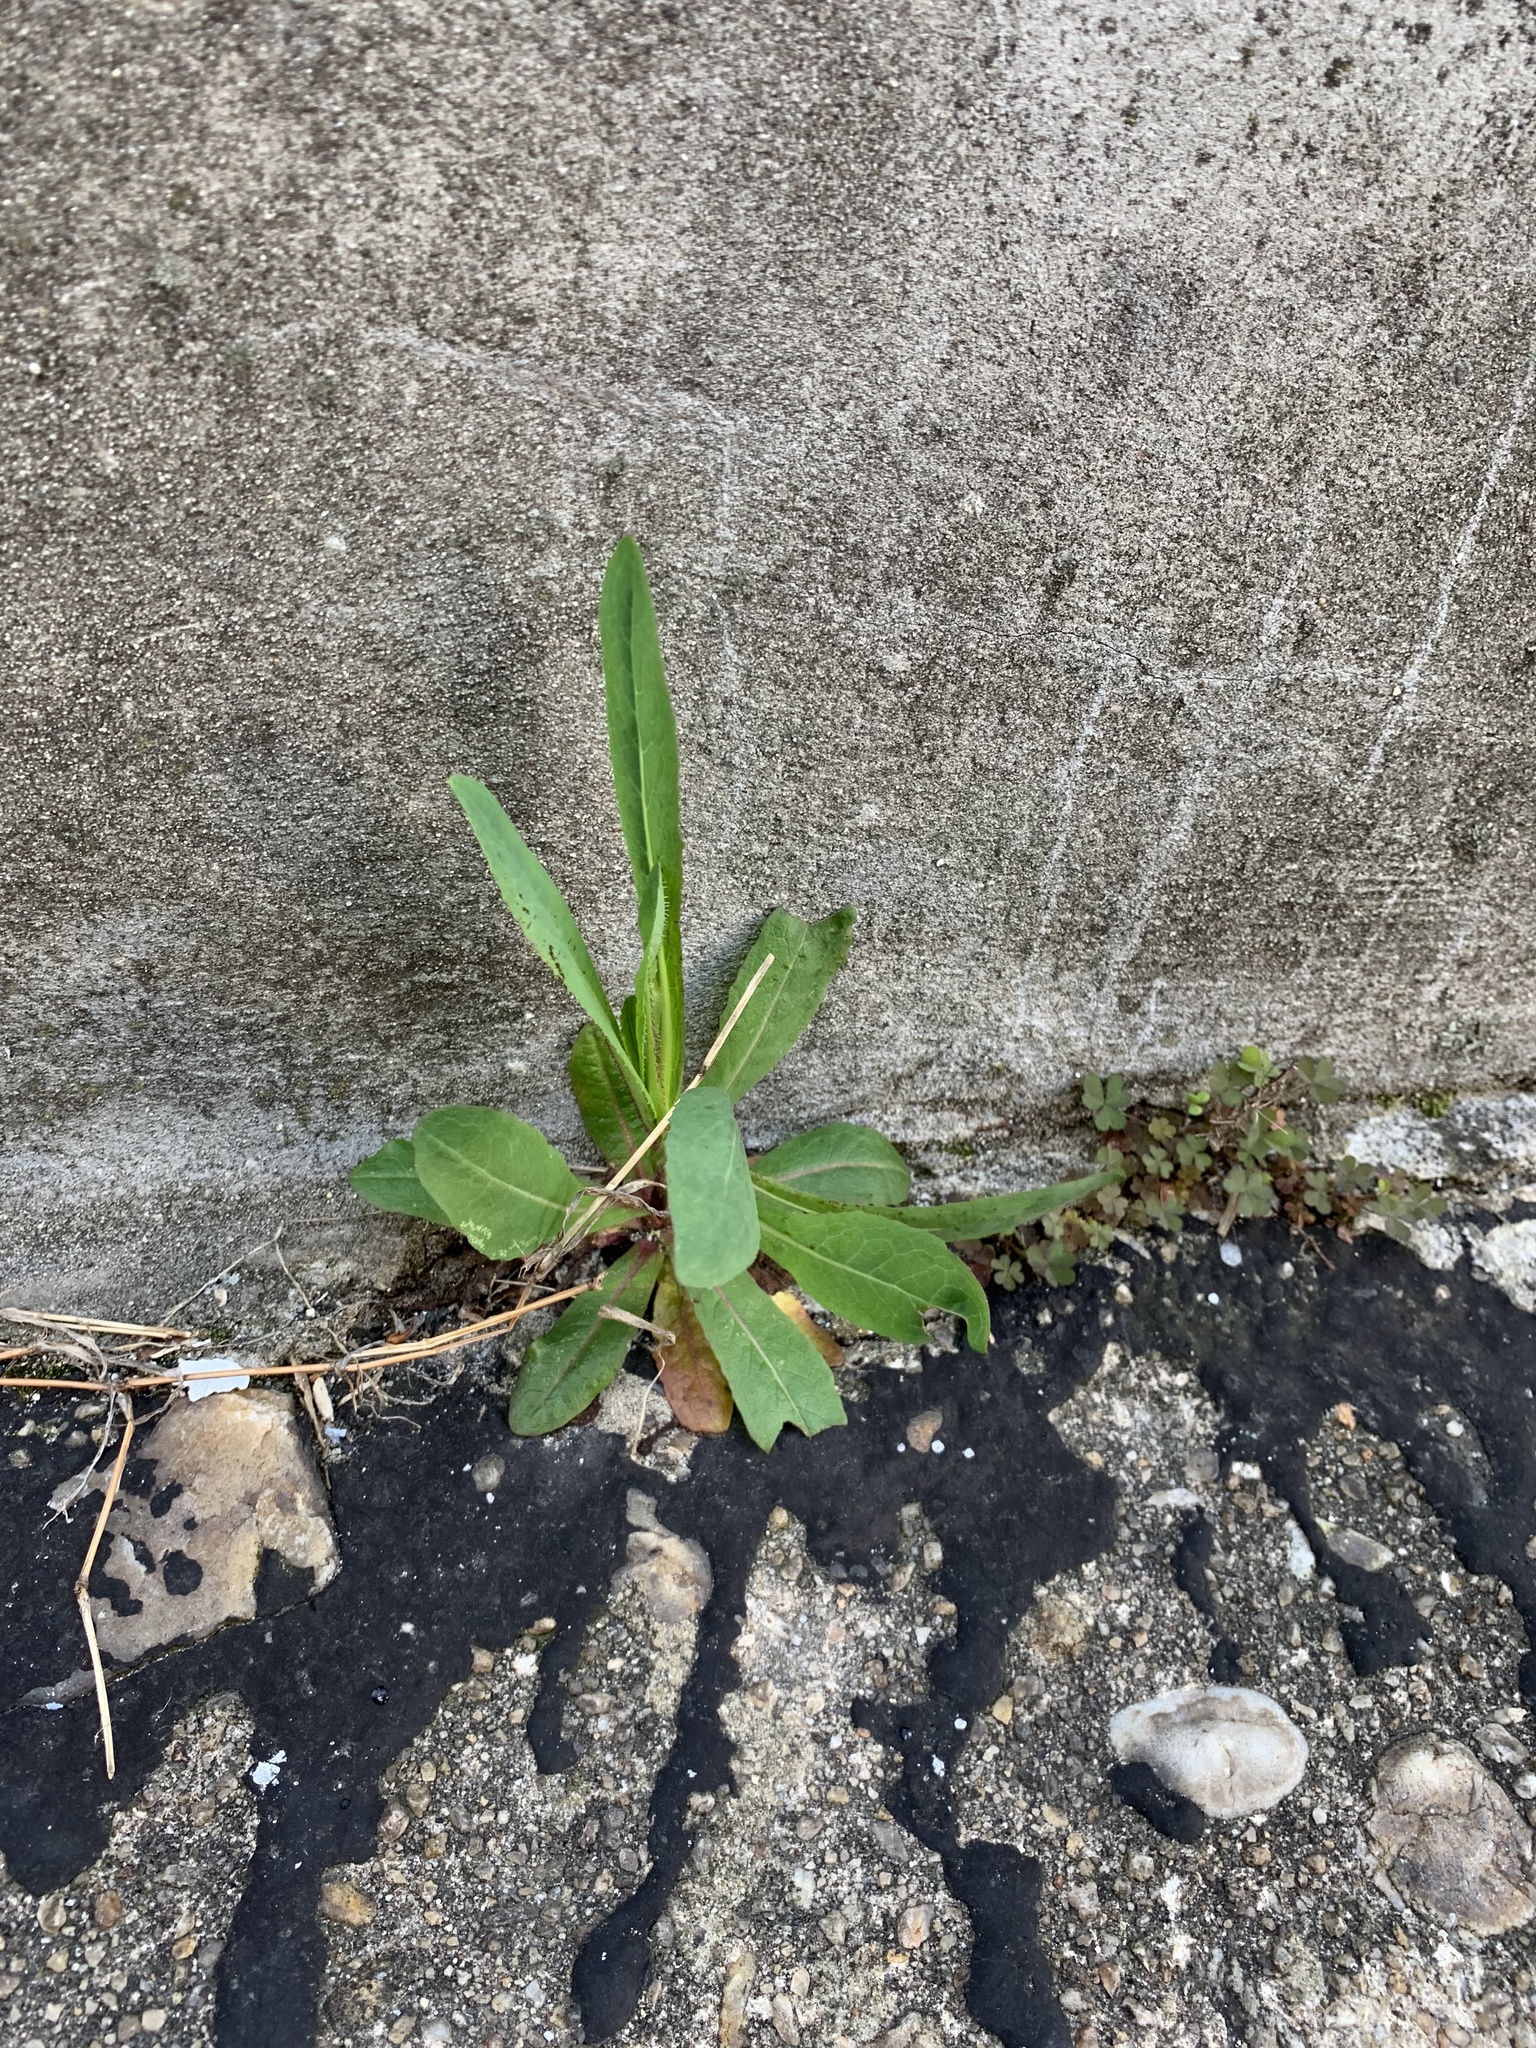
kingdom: Plantae
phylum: Tracheophyta
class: Magnoliopsida
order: Asterales
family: Asteraceae
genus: Lactuca
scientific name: Lactuca serriola
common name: Prickly lettuce
